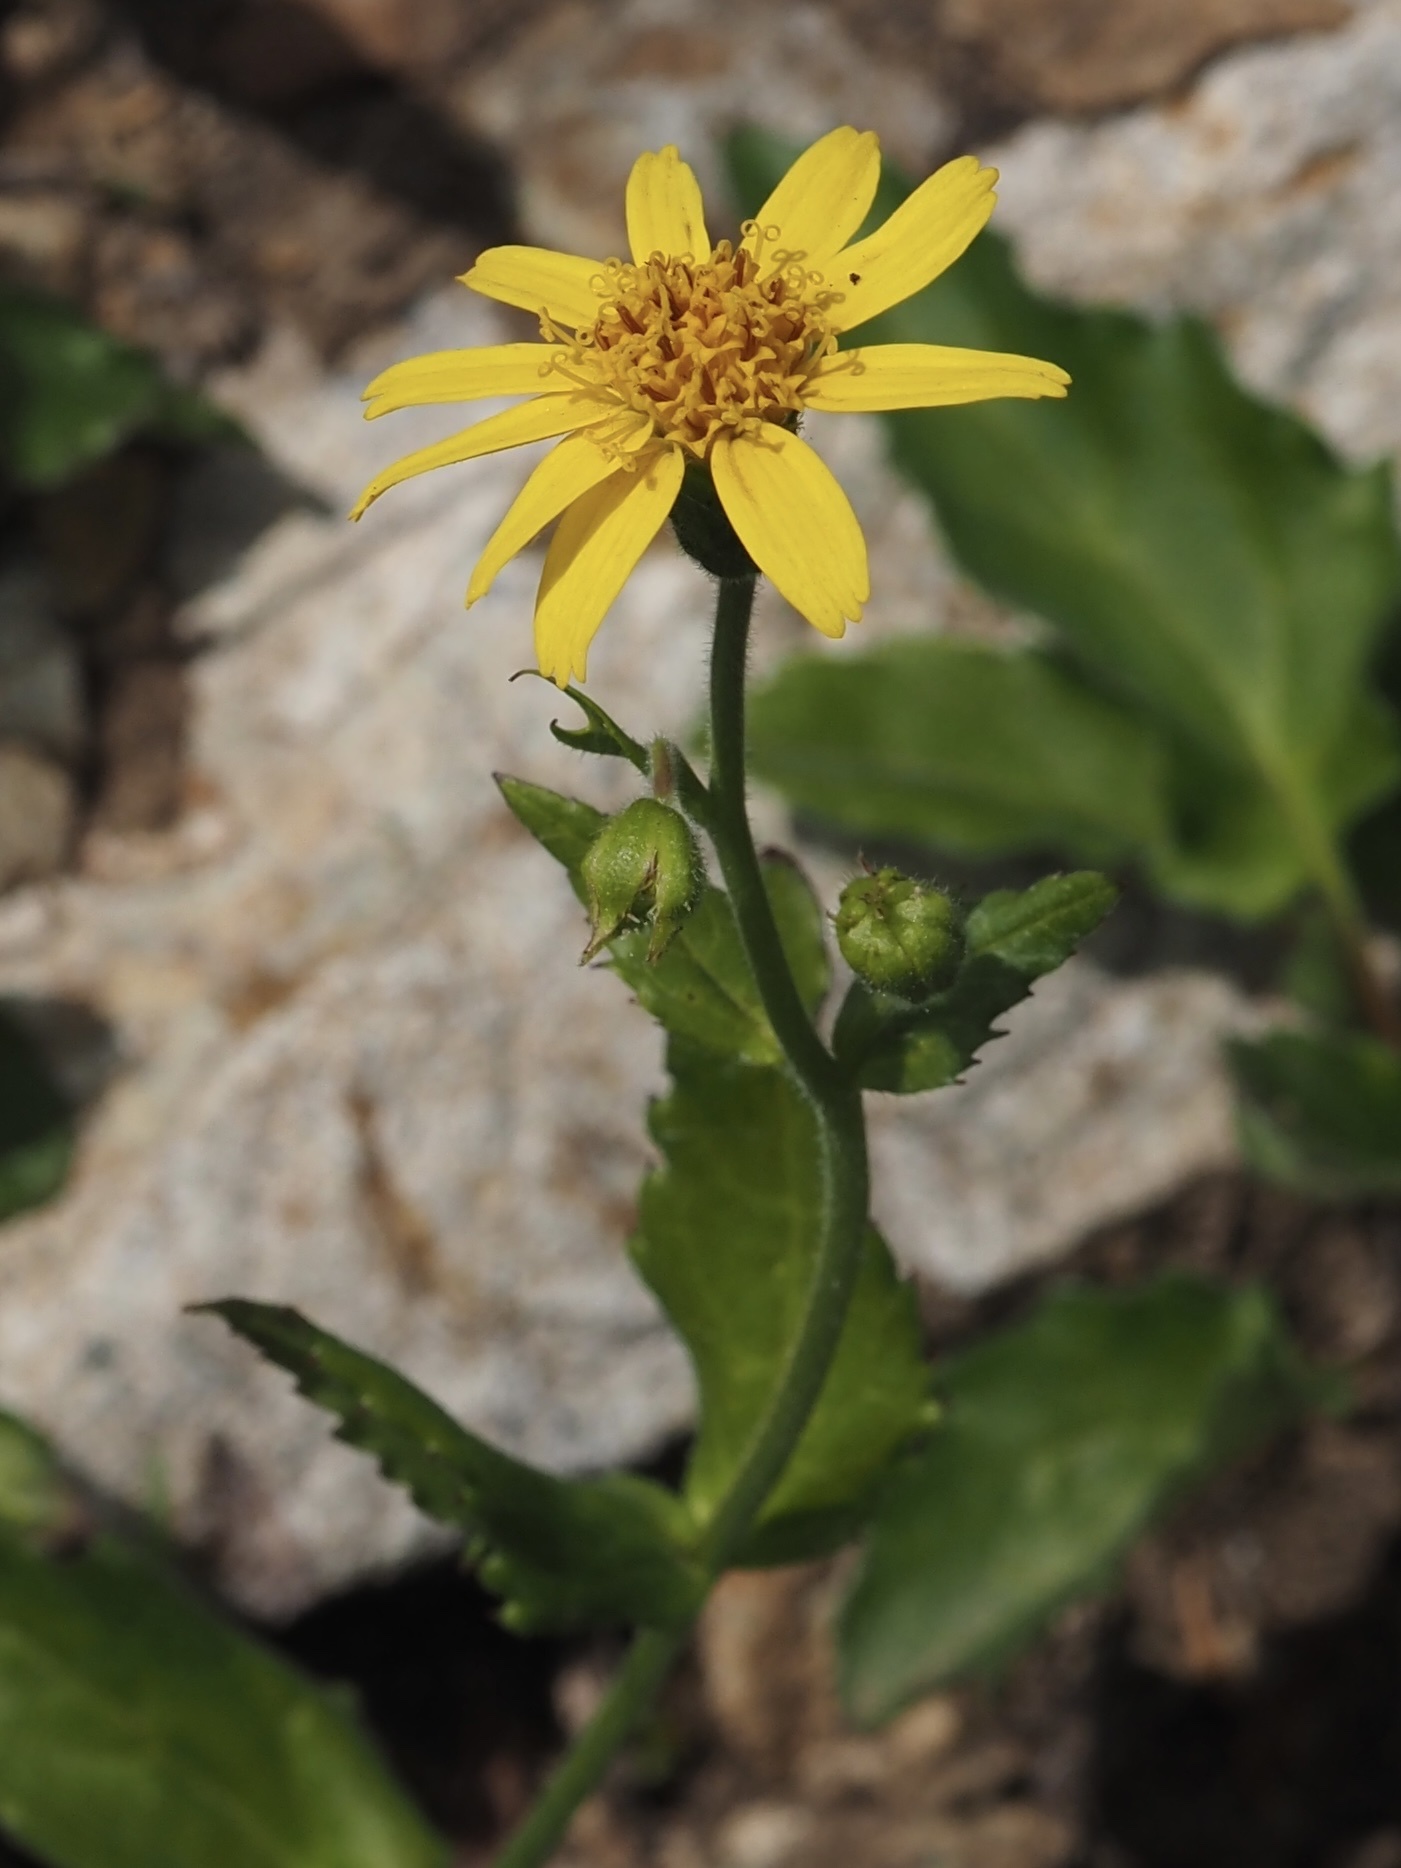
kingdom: Plantae
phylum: Tracheophyta
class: Magnoliopsida
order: Asterales
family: Asteraceae
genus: Arnica
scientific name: Arnica latifolia
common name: Arnica
